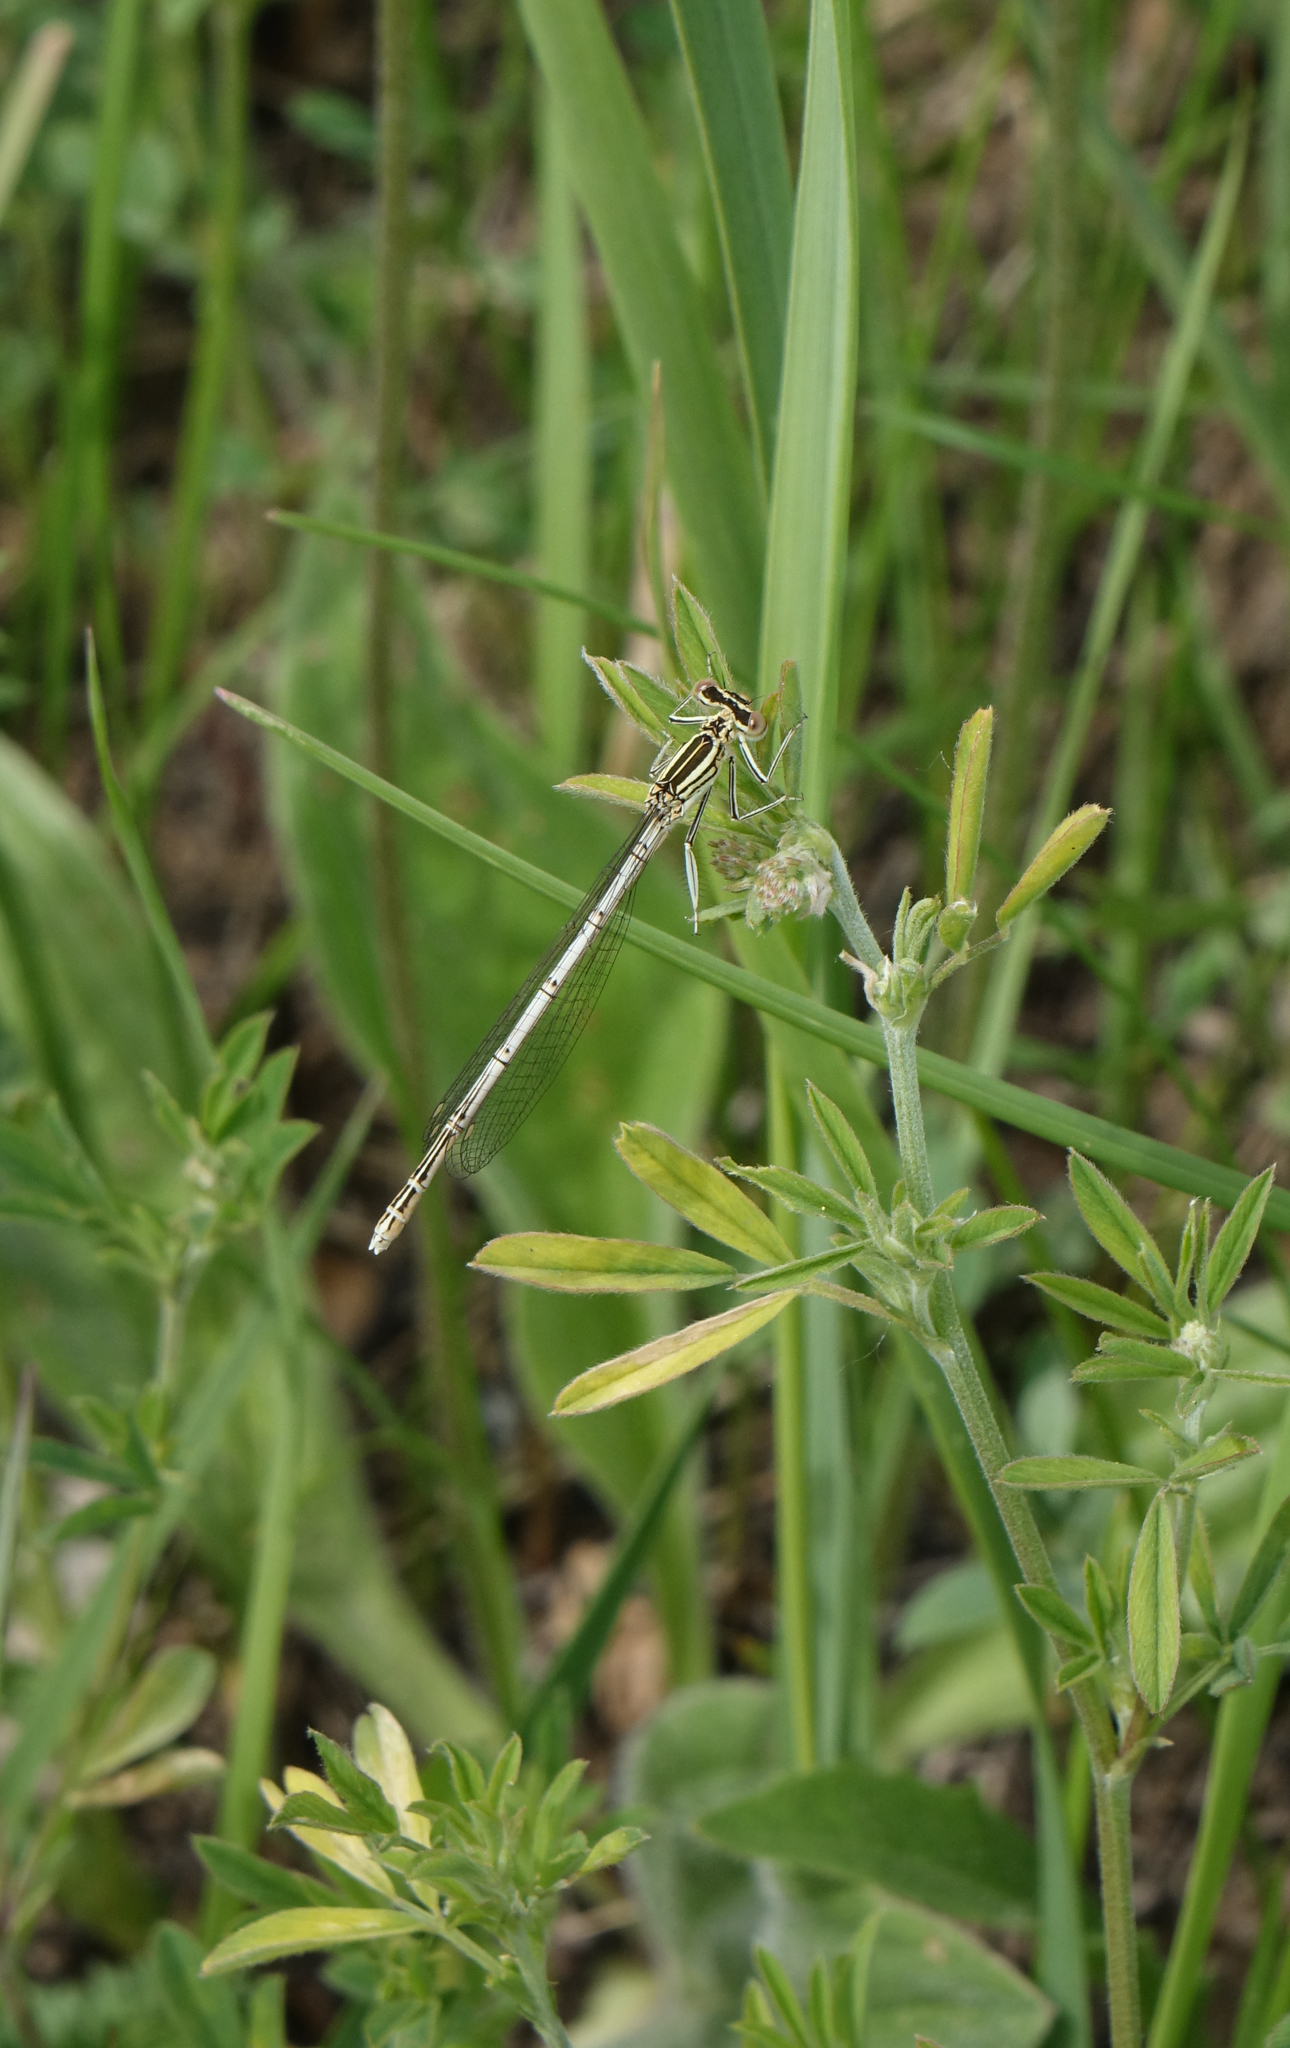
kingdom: Animalia
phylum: Arthropoda
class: Insecta
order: Odonata
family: Platycnemididae
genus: Platycnemis
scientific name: Platycnemis pennipes
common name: White-legged damselfly
